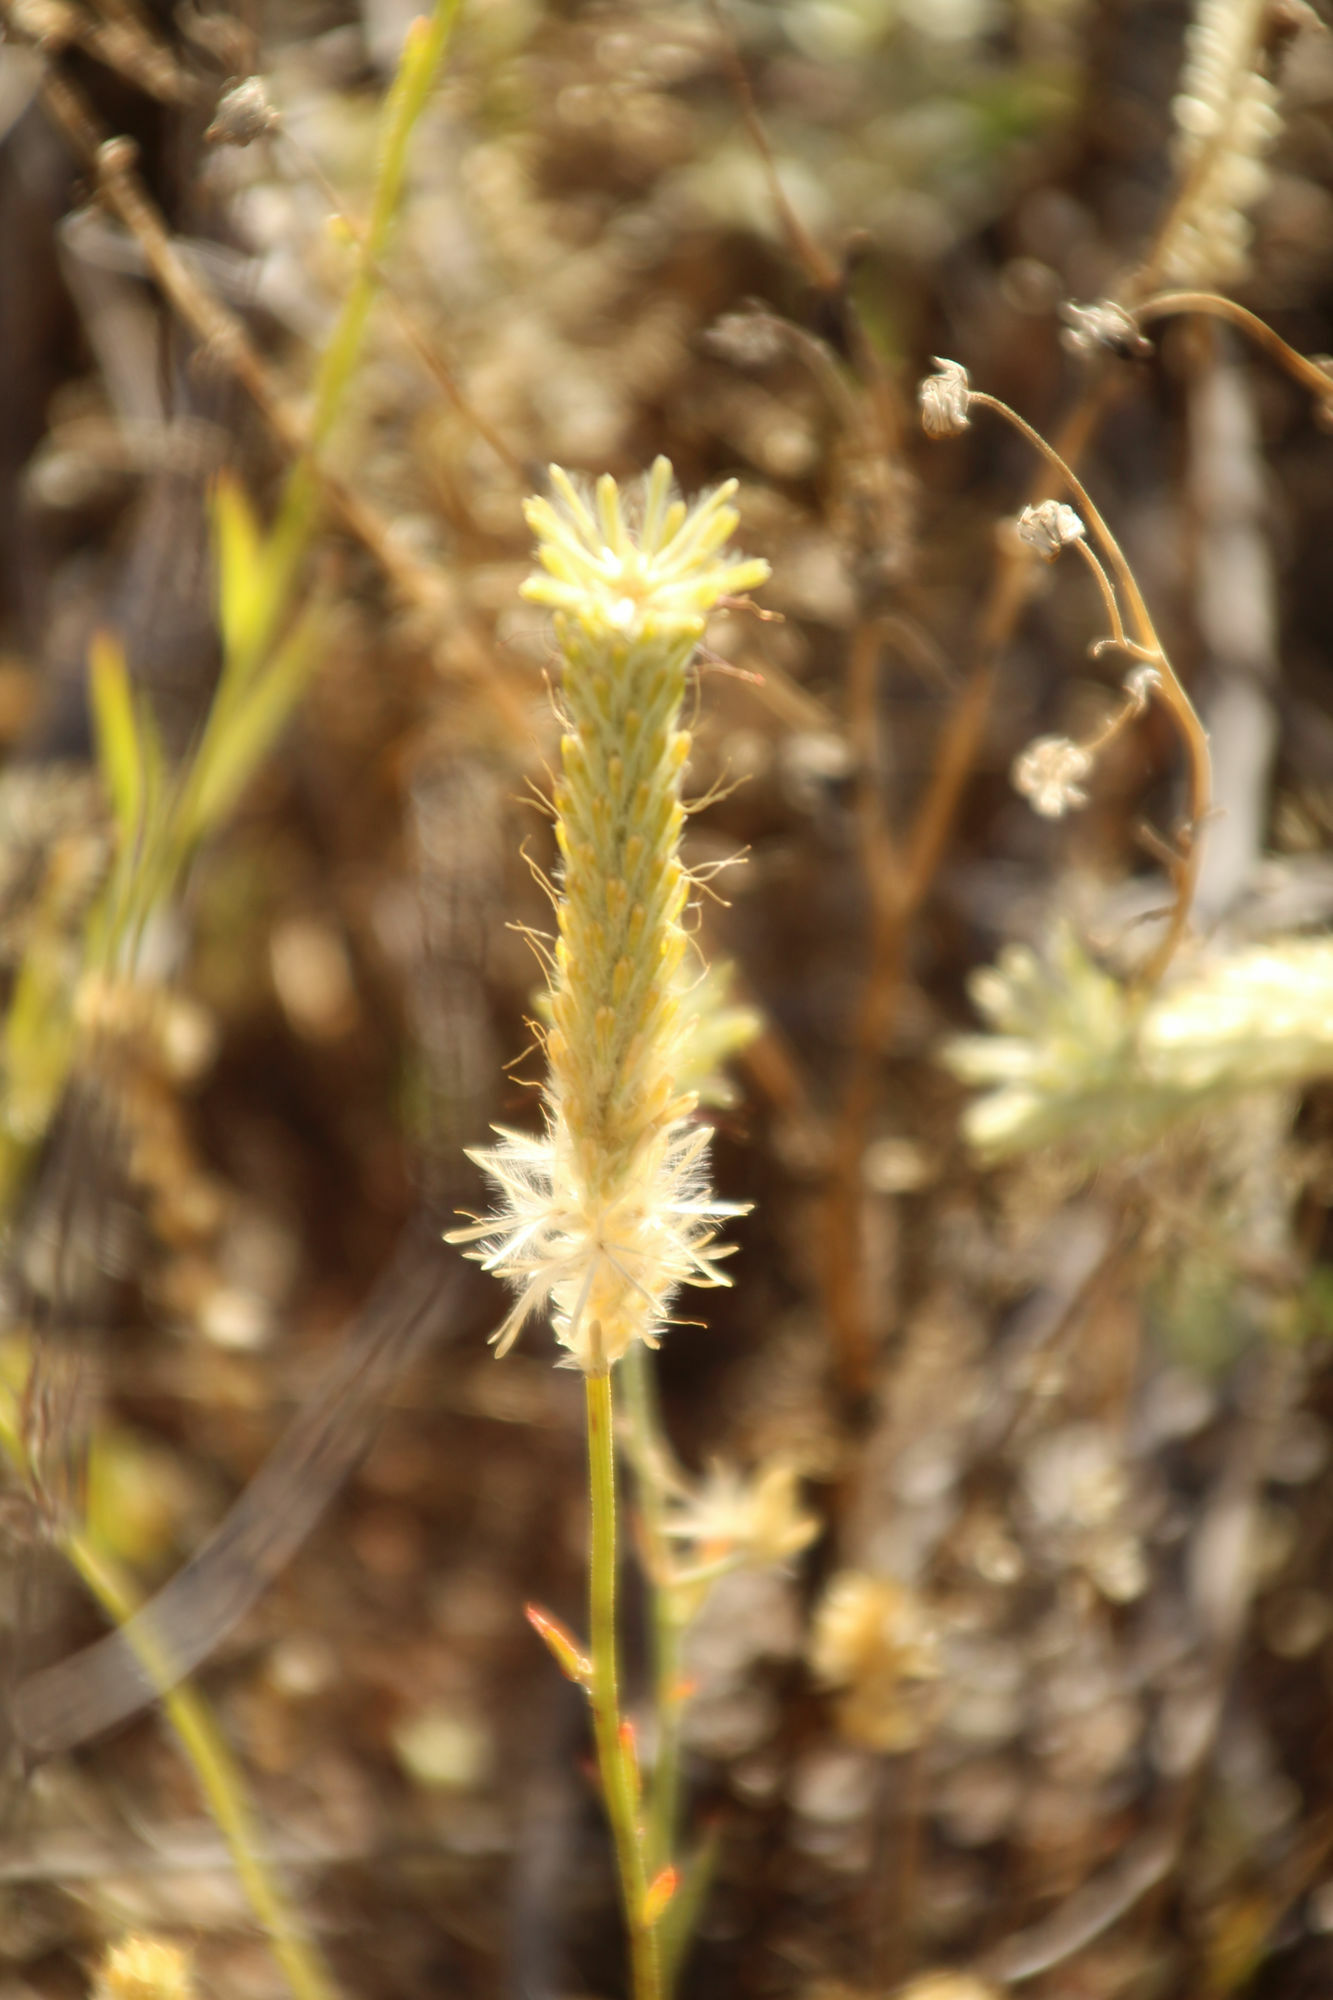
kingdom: Plantae
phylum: Tracheophyta
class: Magnoliopsida
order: Caryophyllales
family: Amaranthaceae
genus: Ptilotus
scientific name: Ptilotus polystachyus
